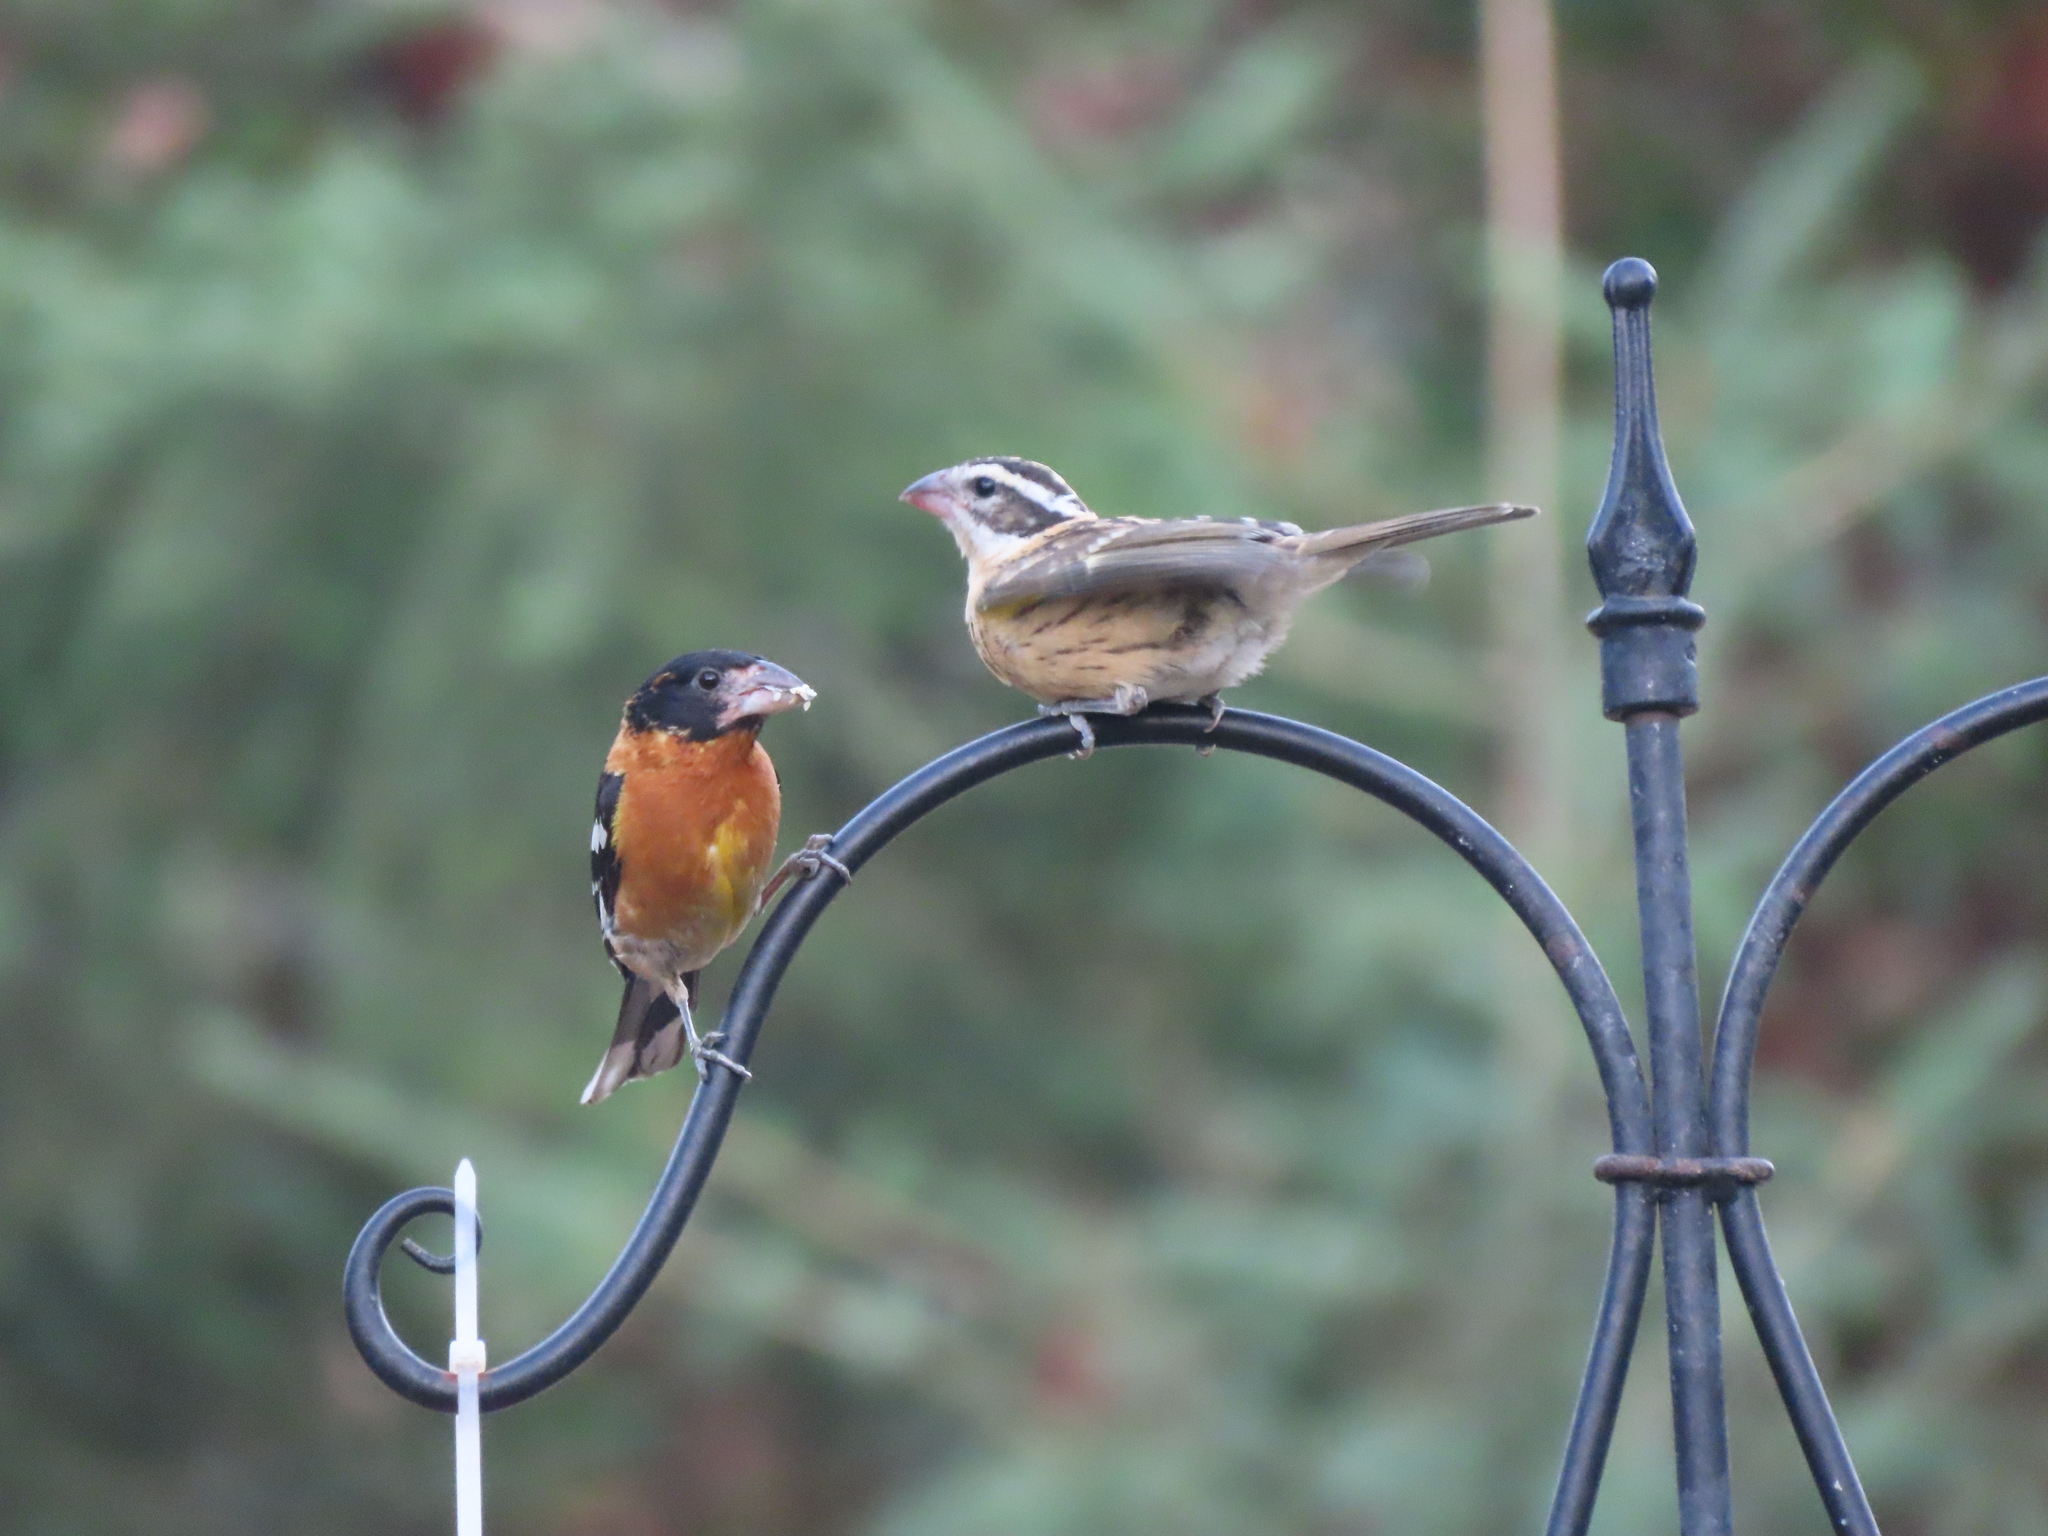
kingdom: Animalia
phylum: Chordata
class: Aves
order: Passeriformes
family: Cardinalidae
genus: Pheucticus
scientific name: Pheucticus melanocephalus
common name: Black-headed grosbeak
